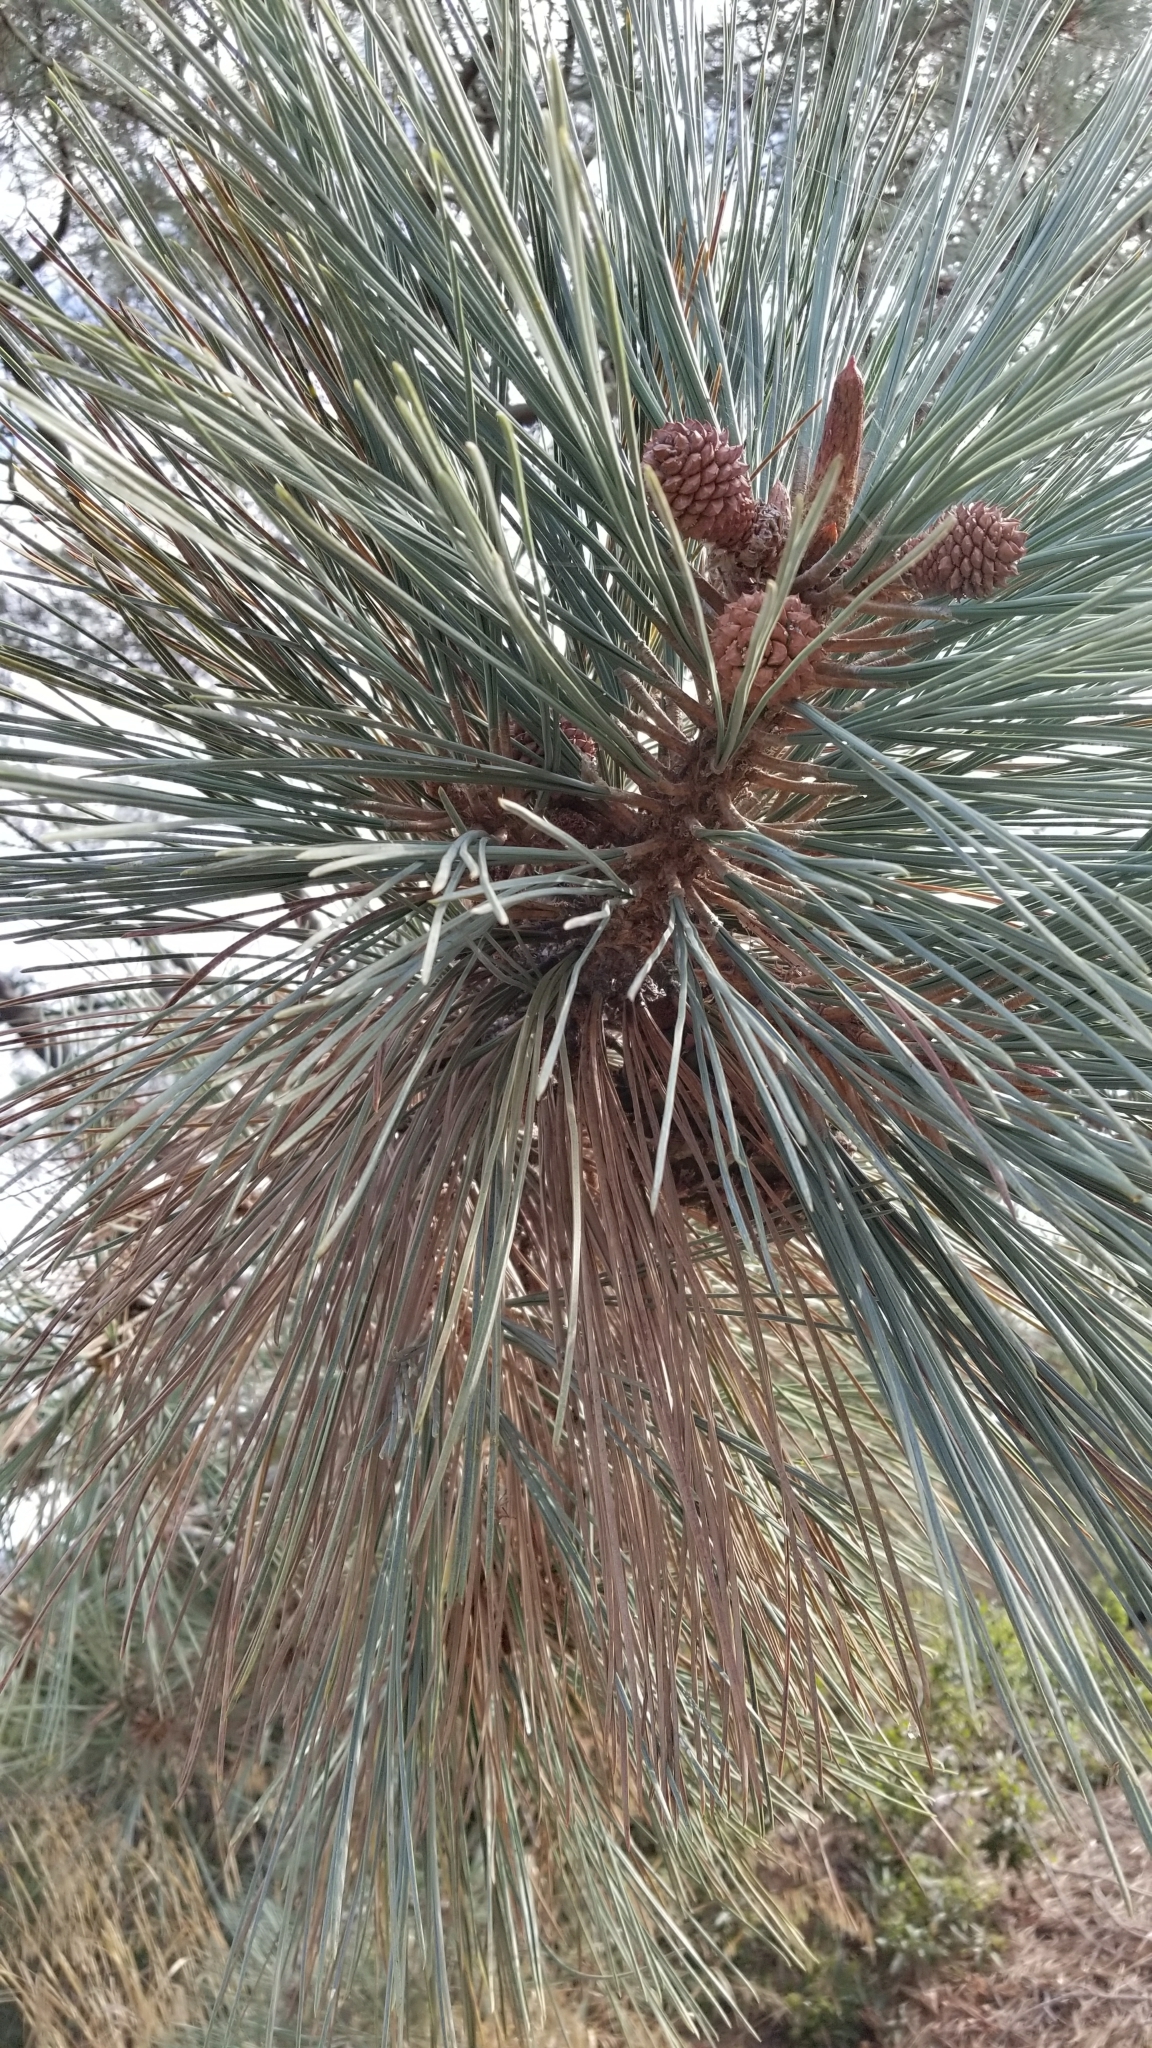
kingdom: Plantae
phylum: Tracheophyta
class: Pinopsida
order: Pinales
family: Pinaceae
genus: Pinus
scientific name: Pinus torreyana
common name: Torrey pine
